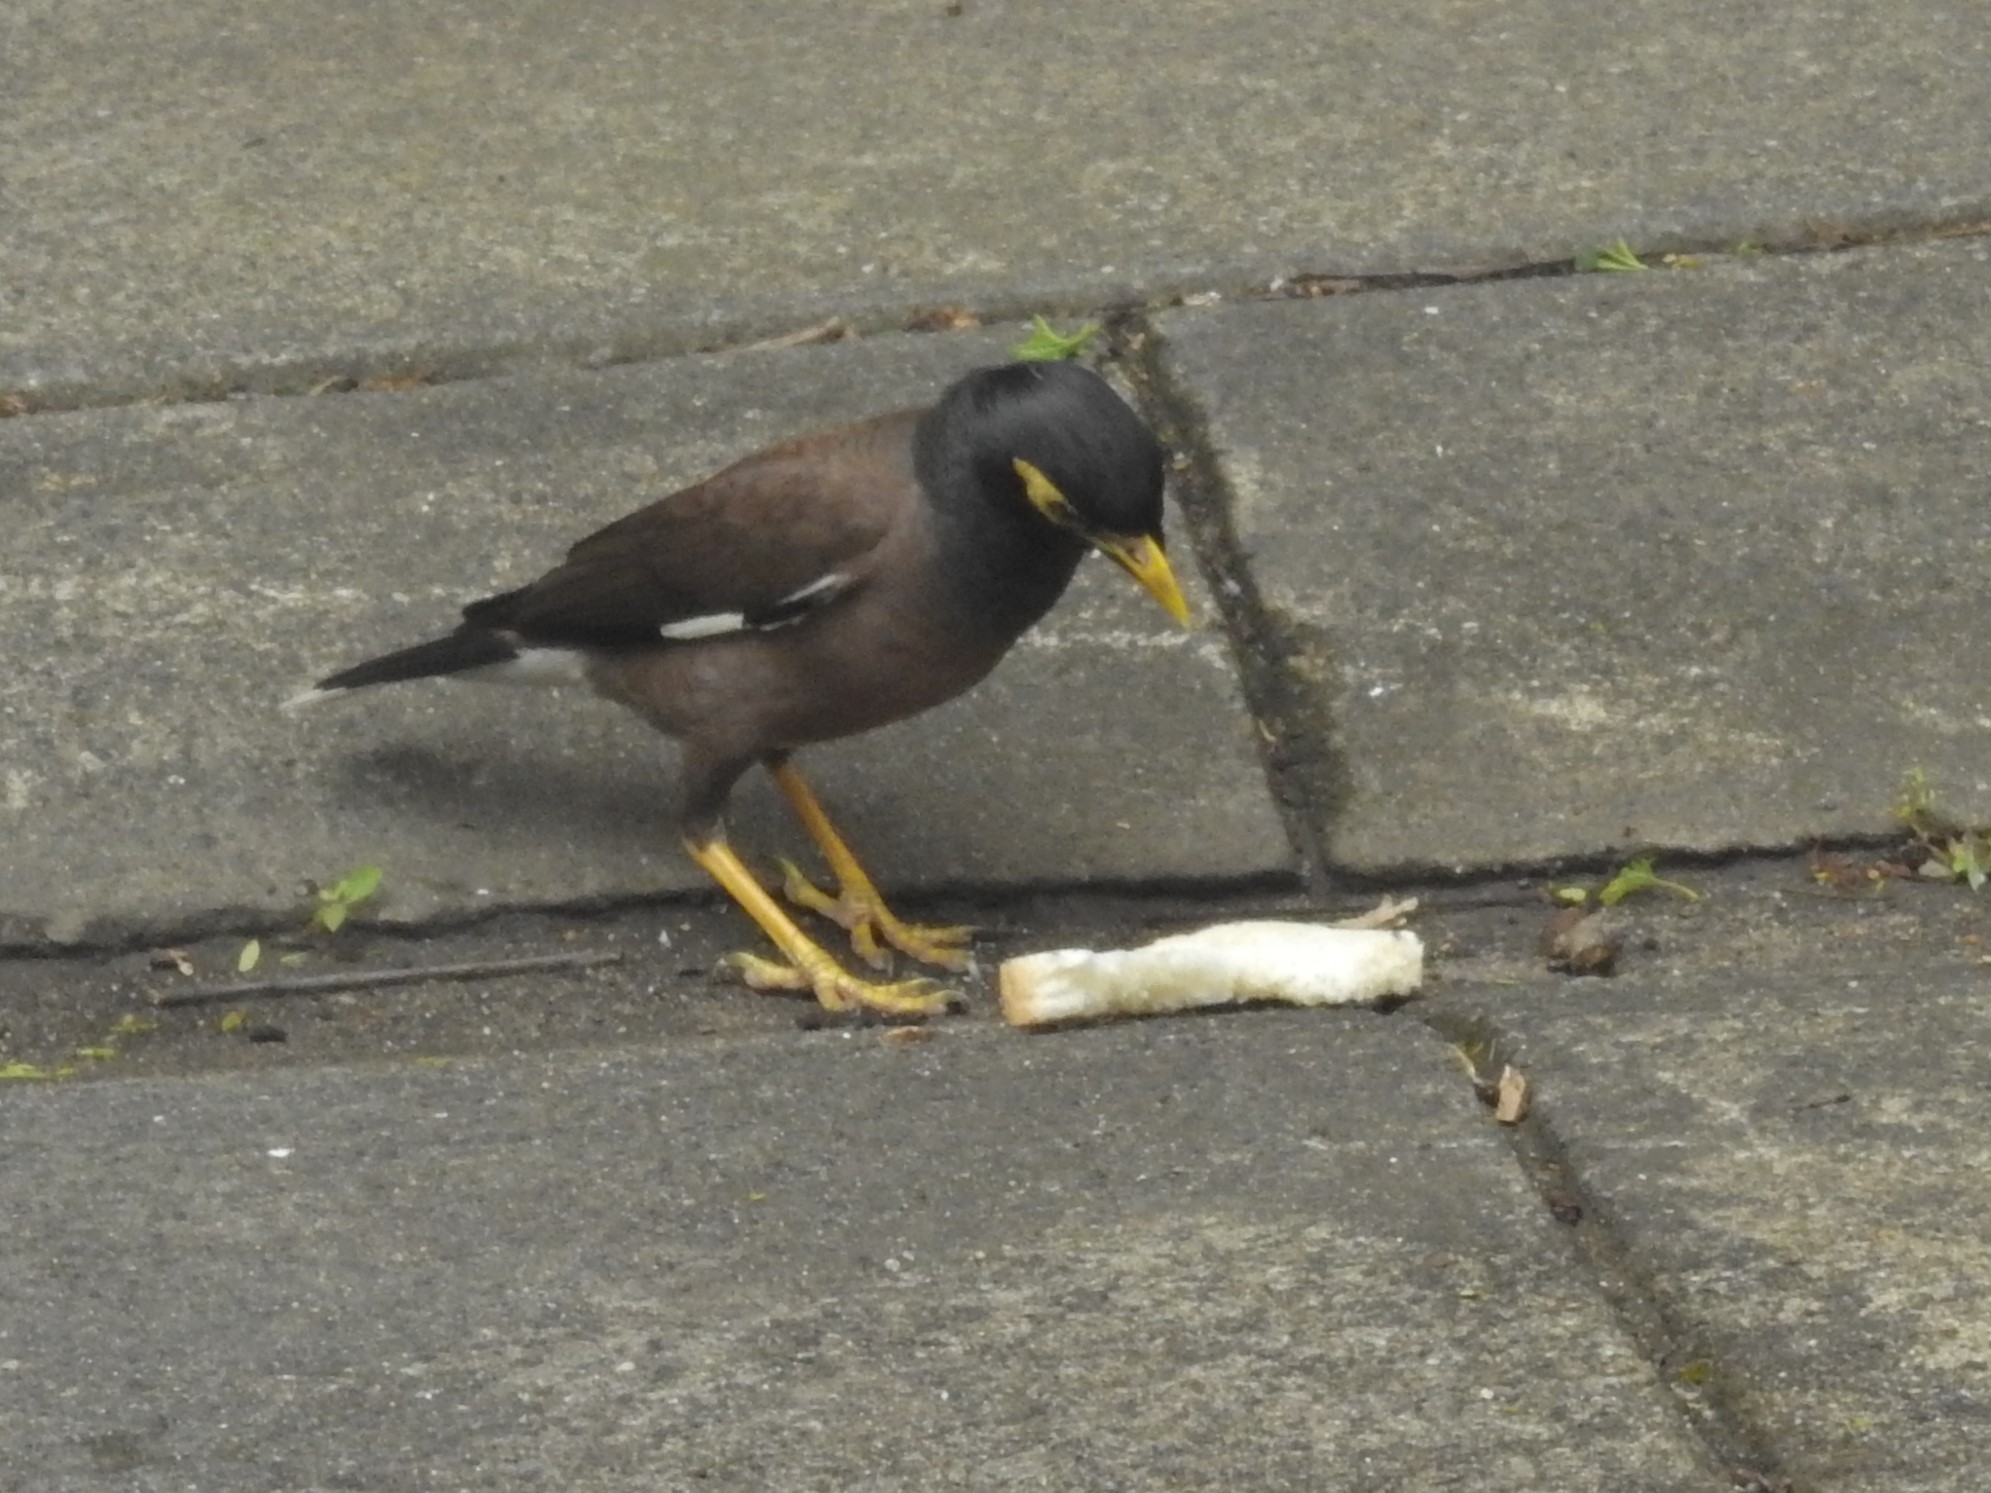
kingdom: Animalia
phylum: Chordata
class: Aves
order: Passeriformes
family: Sturnidae
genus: Acridotheres
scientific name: Acridotheres tristis
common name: Common myna
